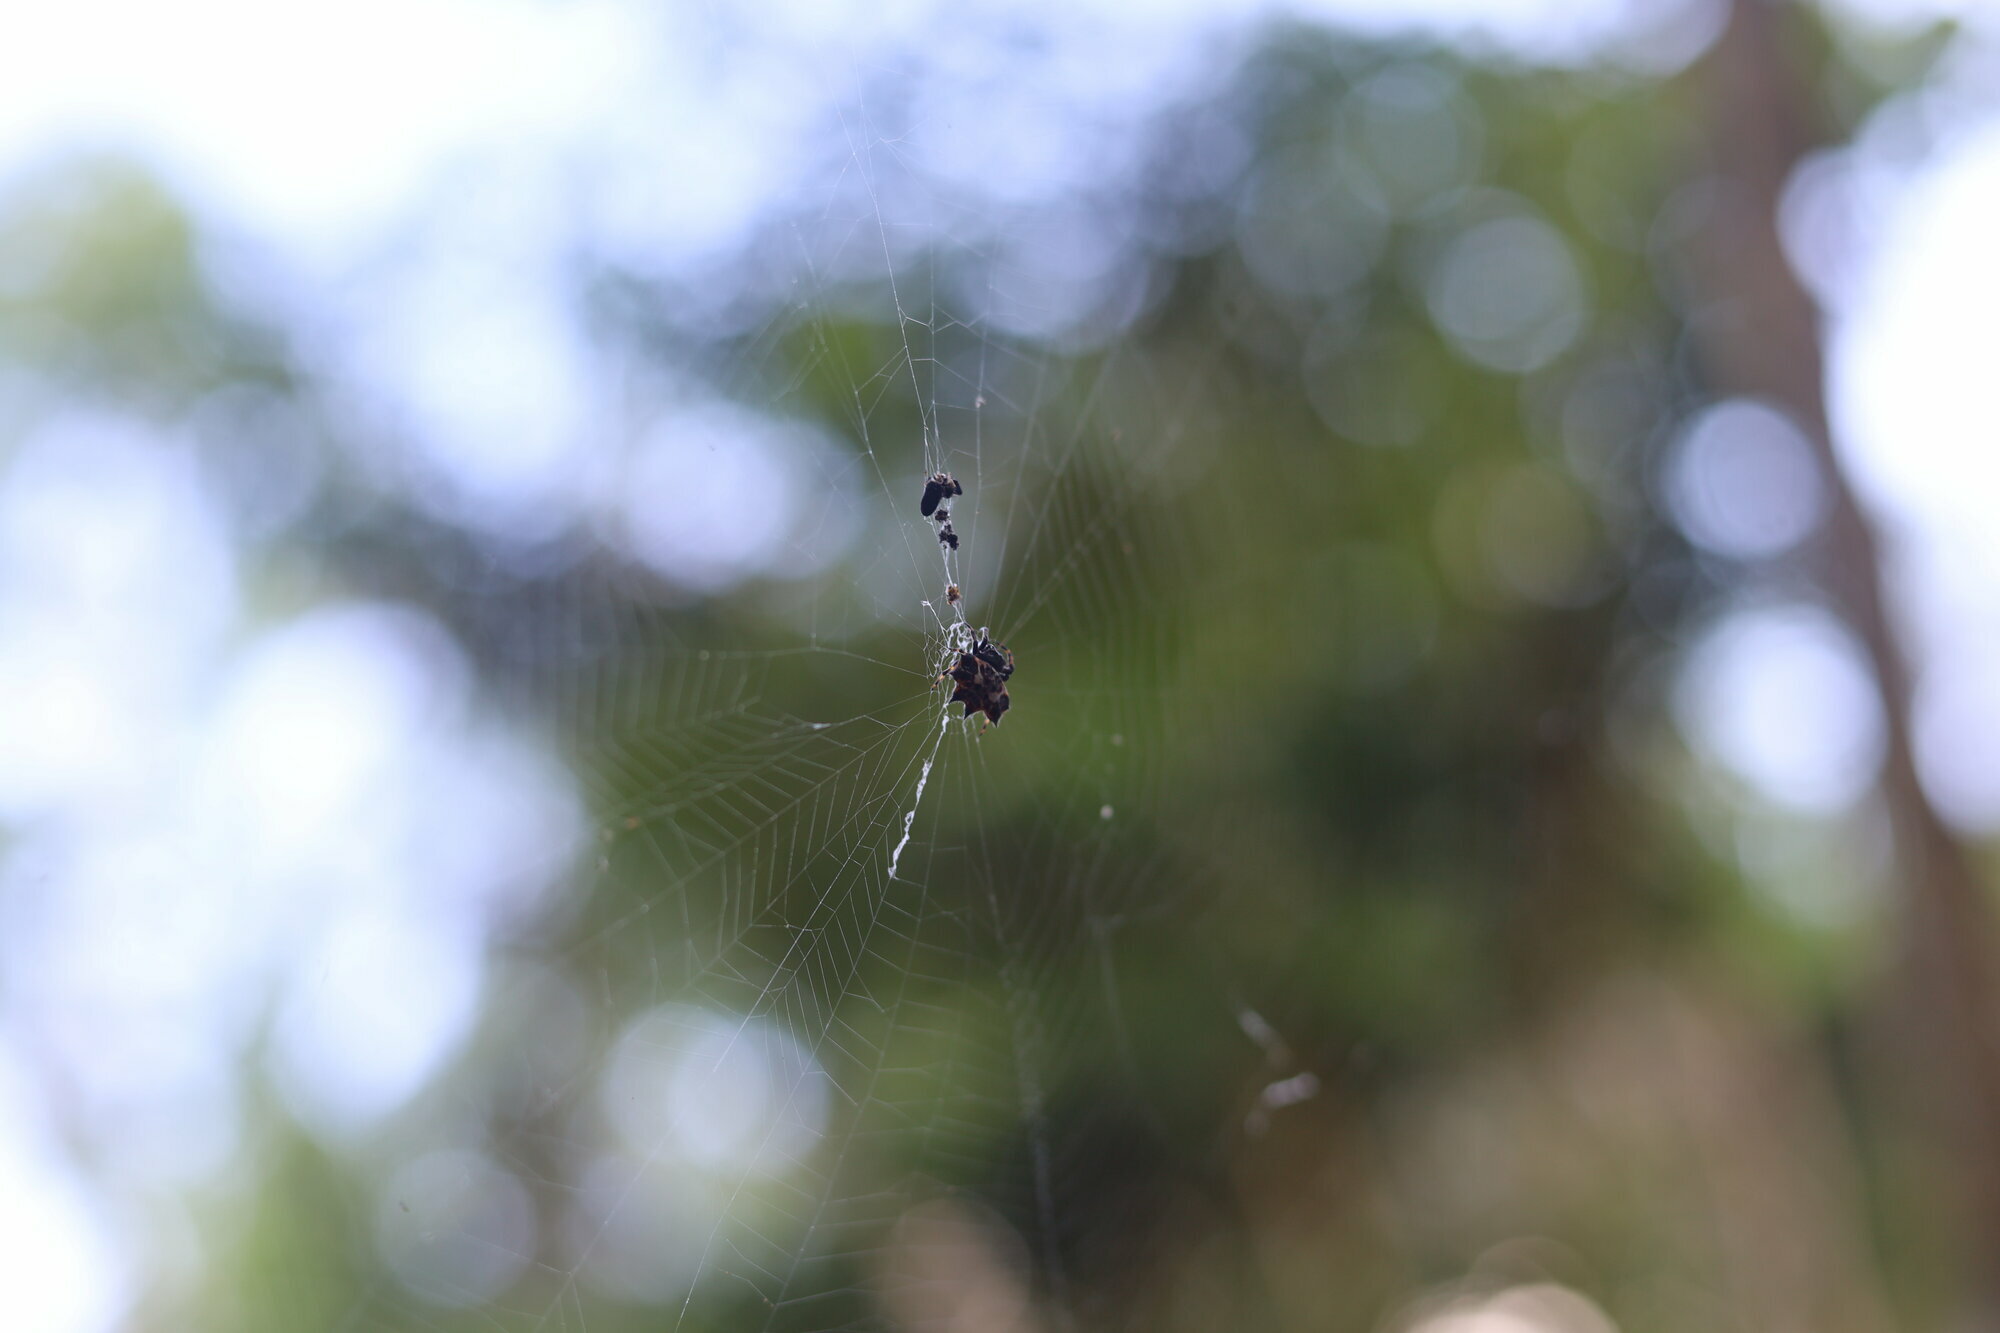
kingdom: Animalia
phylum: Arthropoda
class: Arachnida
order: Araneae
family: Araneidae
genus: Gasteracantha
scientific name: Gasteracantha cancriformis
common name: Orb weavers
